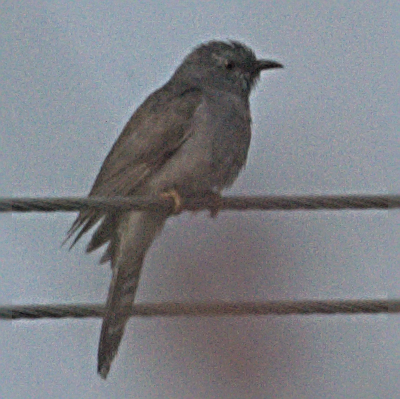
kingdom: Animalia
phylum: Chordata
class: Aves
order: Cuculiformes
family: Cuculidae
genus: Cacomantis
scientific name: Cacomantis passerinus
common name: Grey-bellied cuckoo
